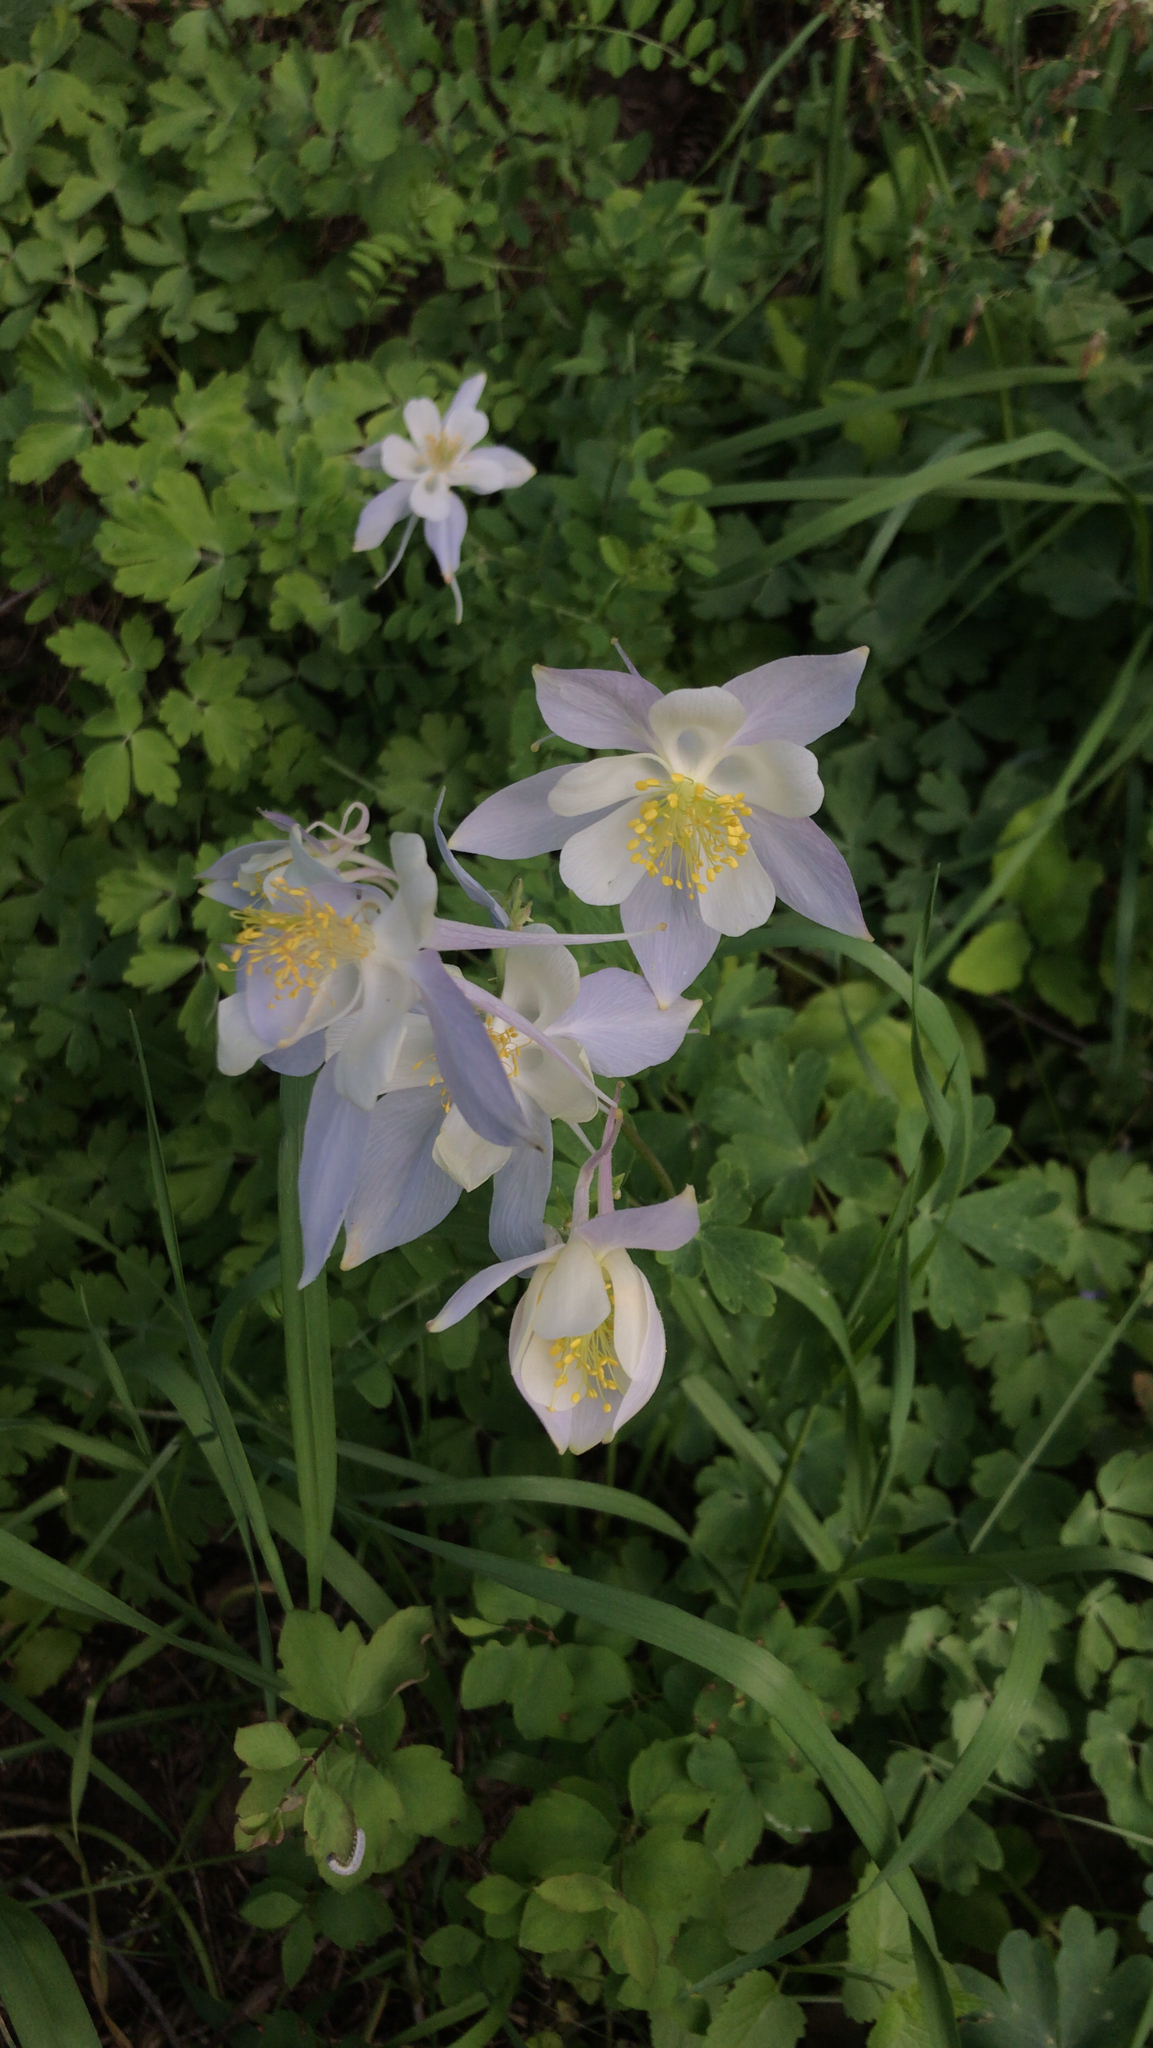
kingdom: Plantae
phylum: Tracheophyta
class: Magnoliopsida
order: Ranunculales
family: Ranunculaceae
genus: Aquilegia
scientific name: Aquilegia coerulea
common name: Rocky mountain columbine
